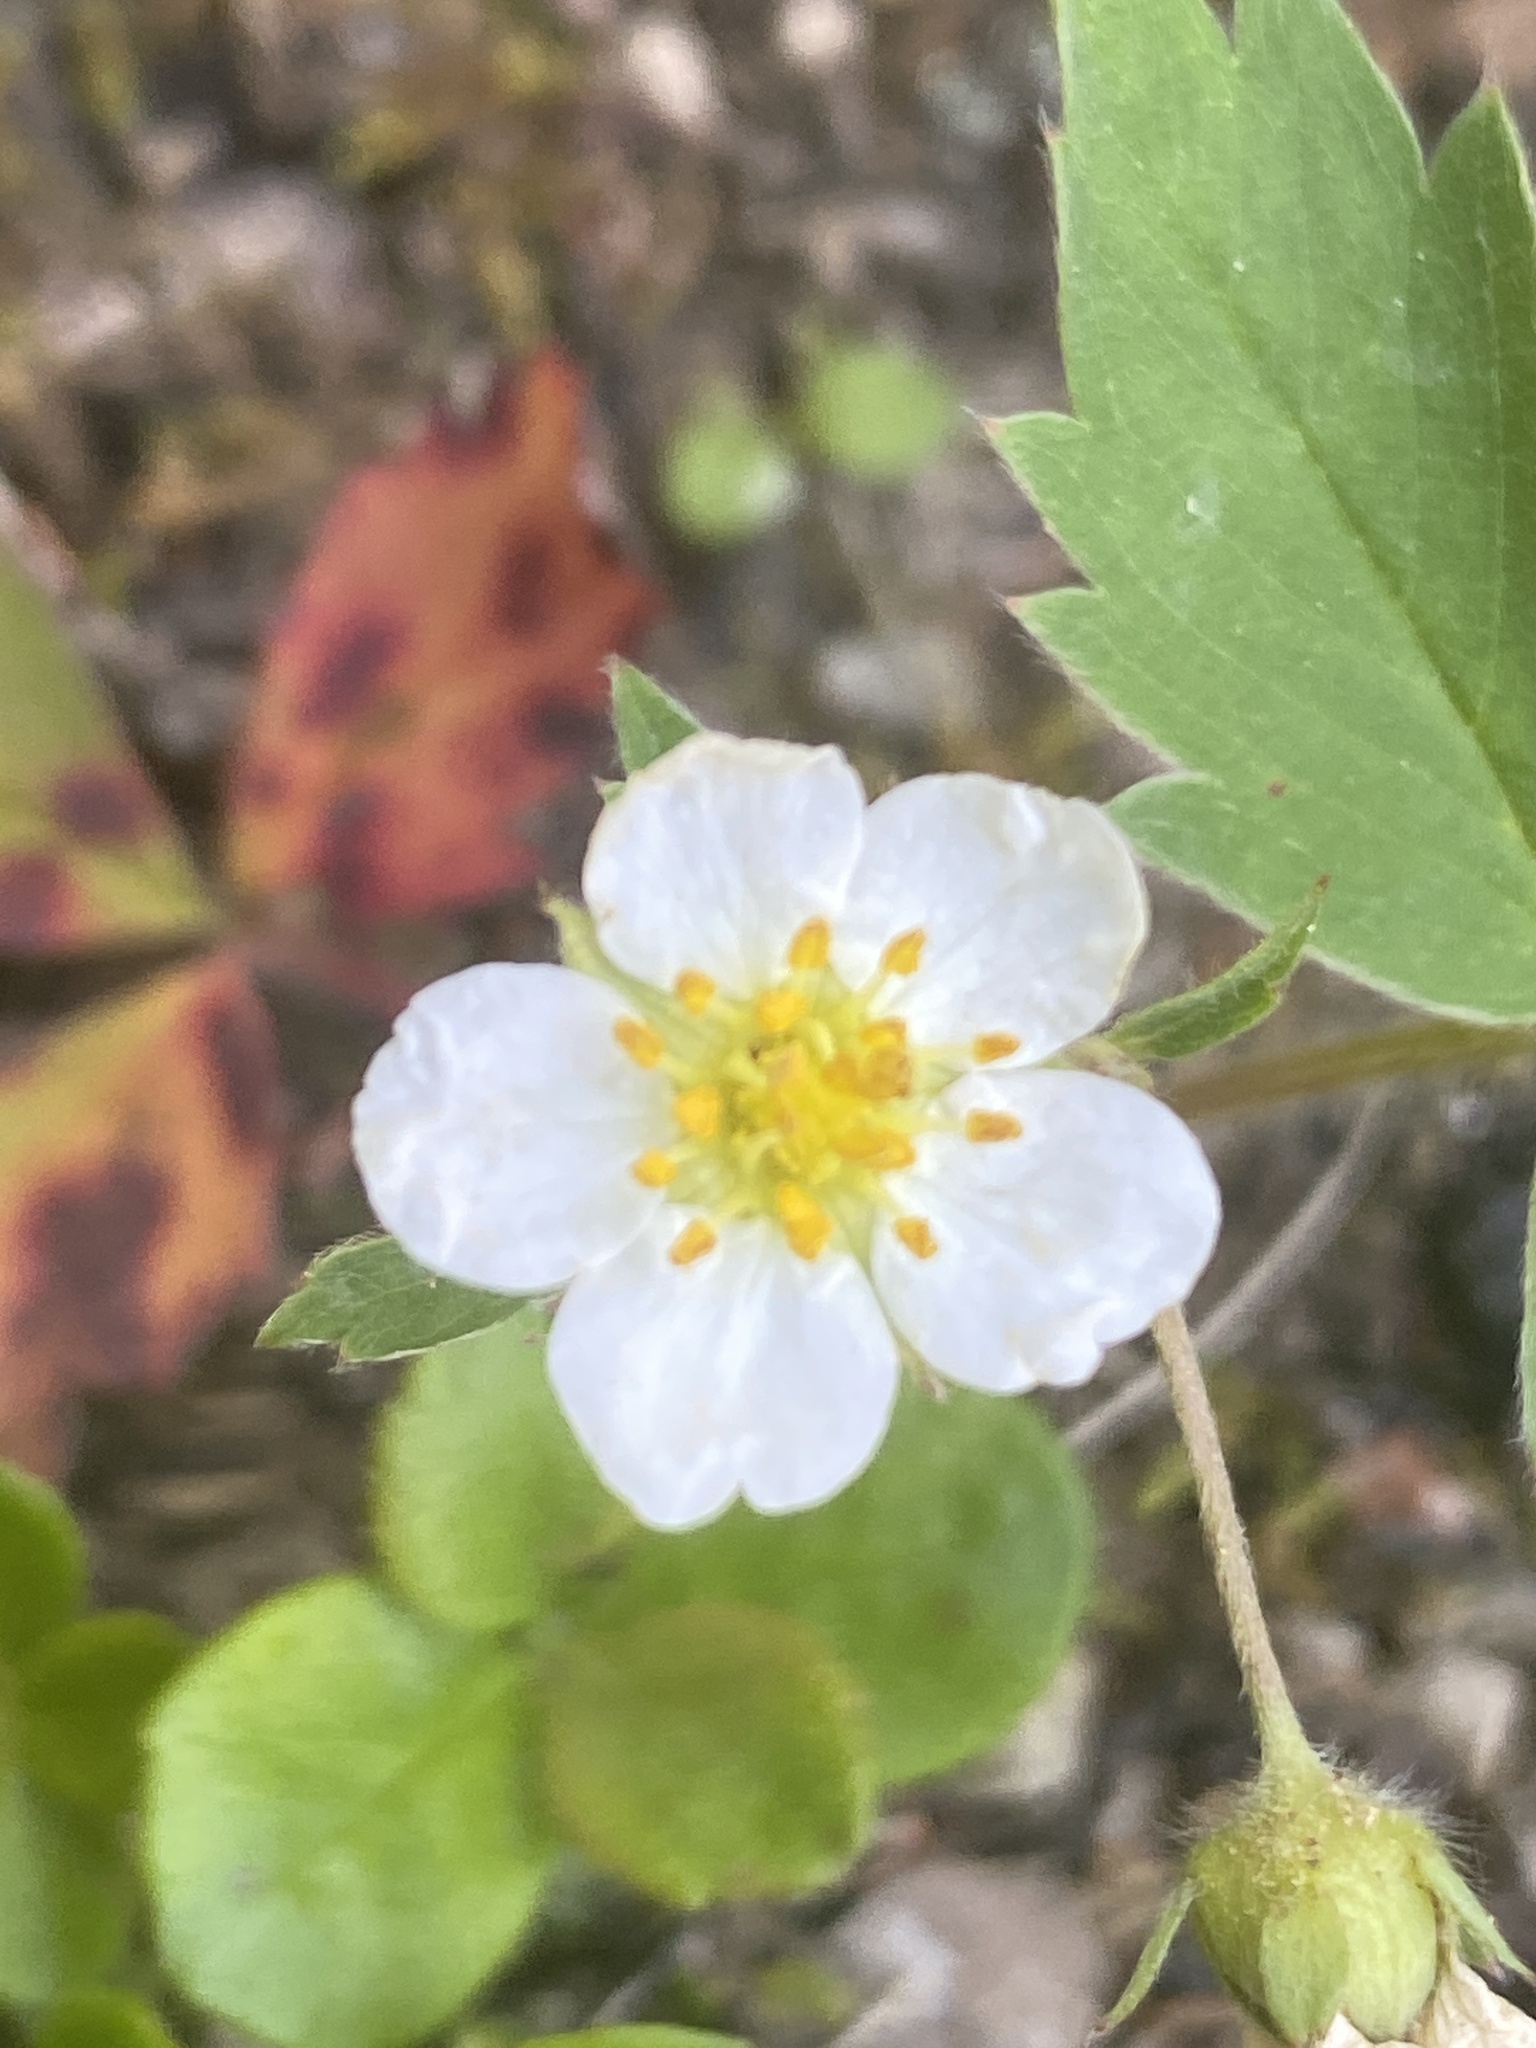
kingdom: Plantae
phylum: Tracheophyta
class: Magnoliopsida
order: Rosales
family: Rosaceae
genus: Fragaria
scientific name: Fragaria virginiana
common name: Thickleaved wild strawberry
